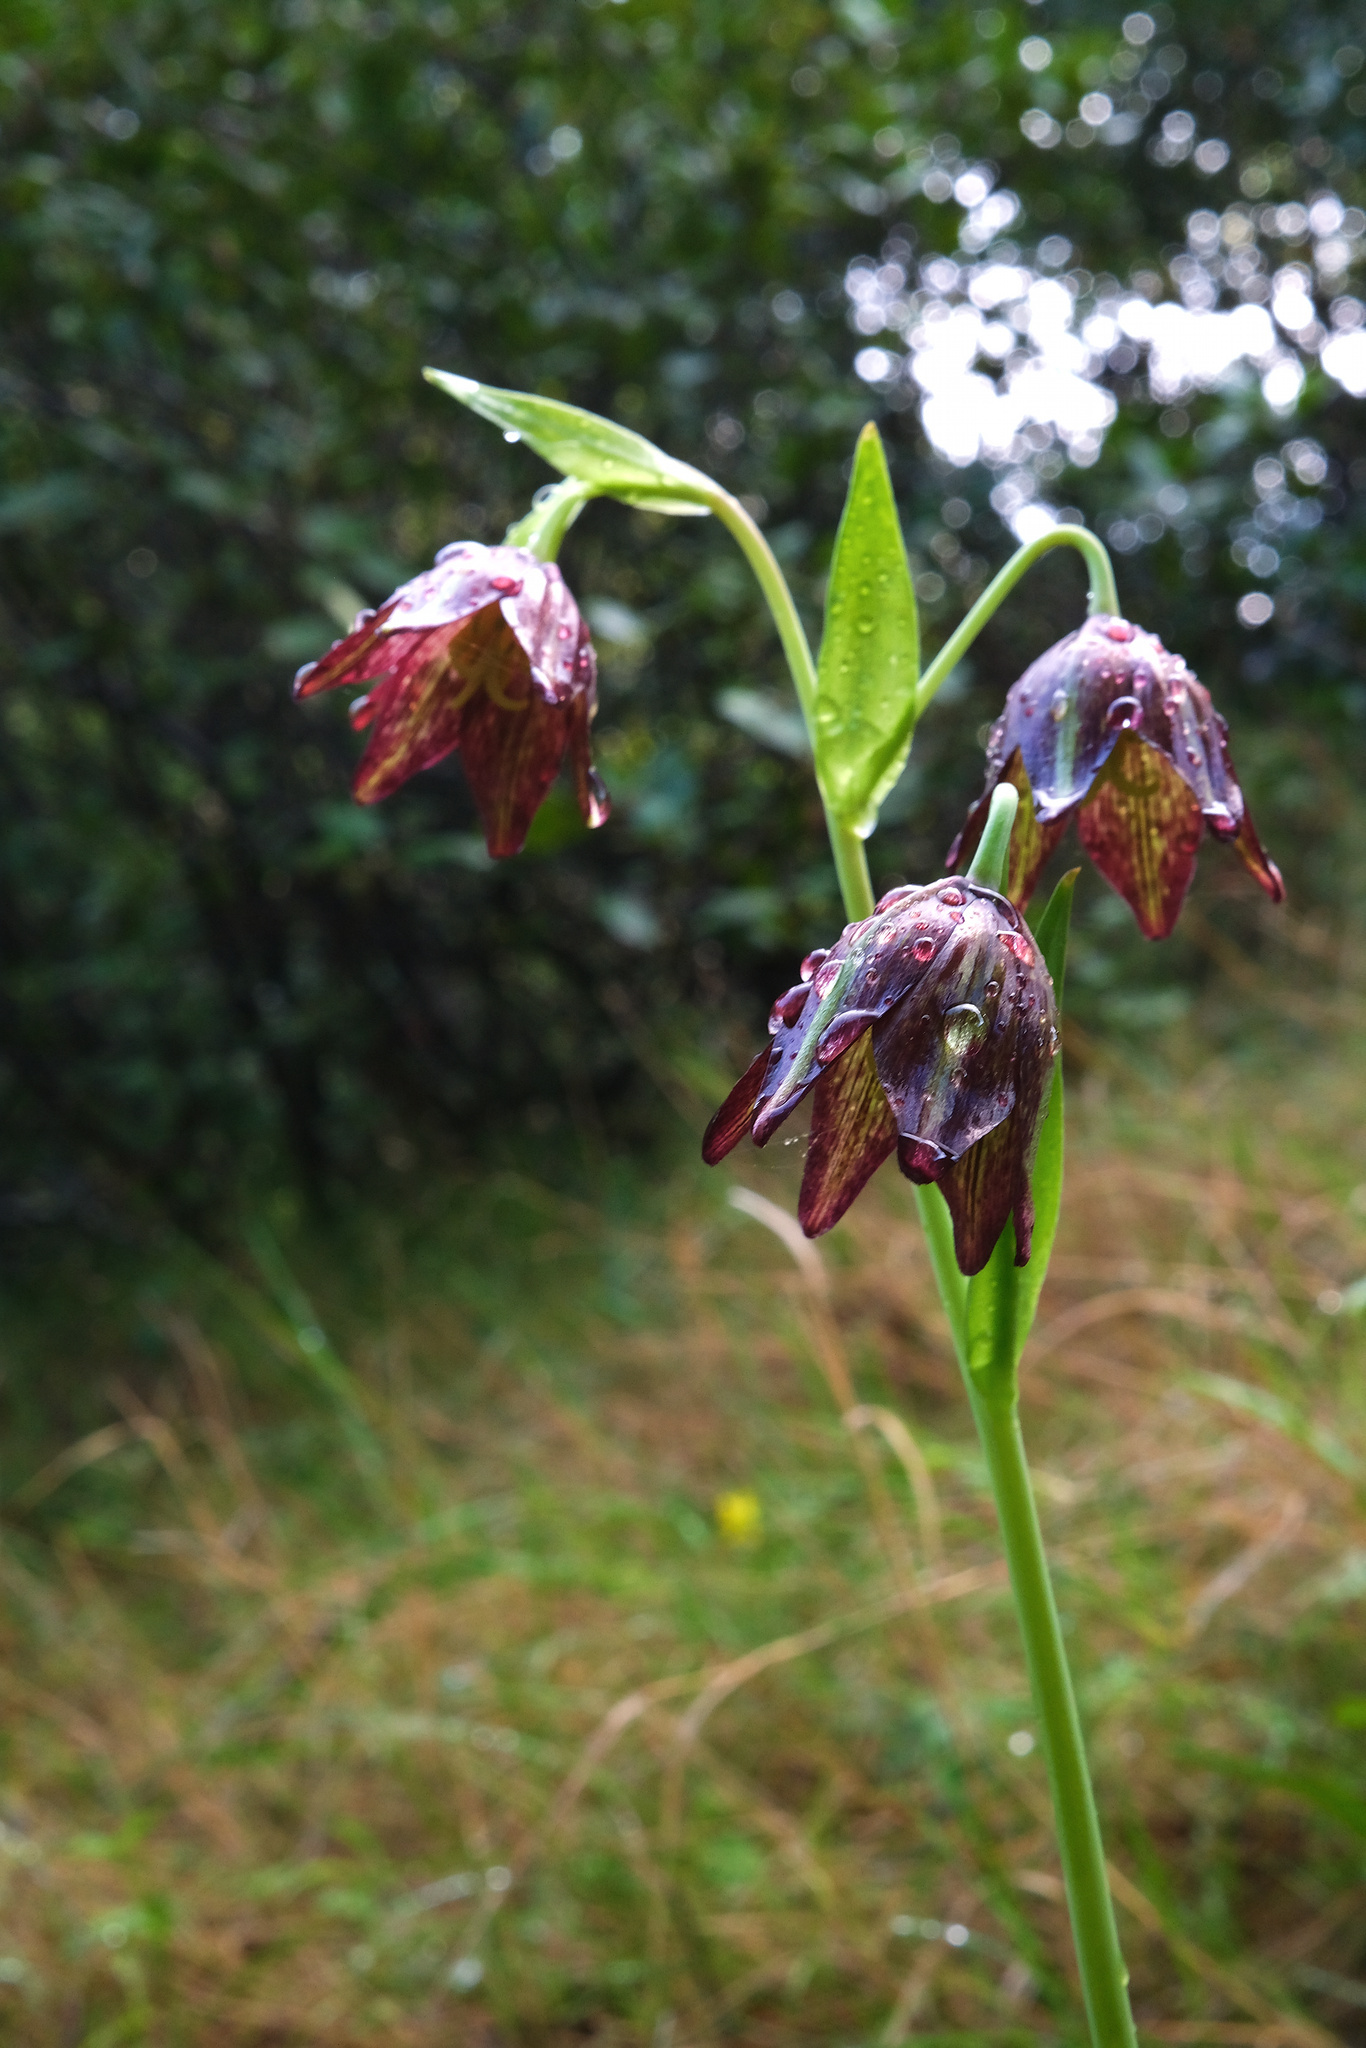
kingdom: Plantae
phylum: Tracheophyta
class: Liliopsida
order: Liliales
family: Liliaceae
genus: Fritillaria
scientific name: Fritillaria biflora
